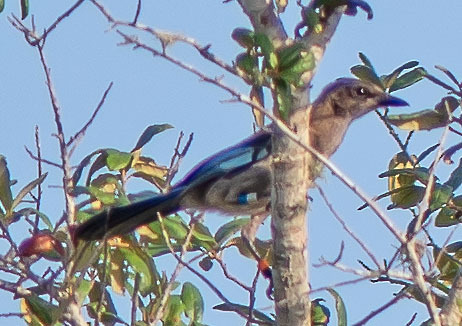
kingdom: Animalia
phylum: Chordata
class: Aves
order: Passeriformes
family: Corvidae
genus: Aphelocoma
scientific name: Aphelocoma coerulescens
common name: Florida scrub jay
